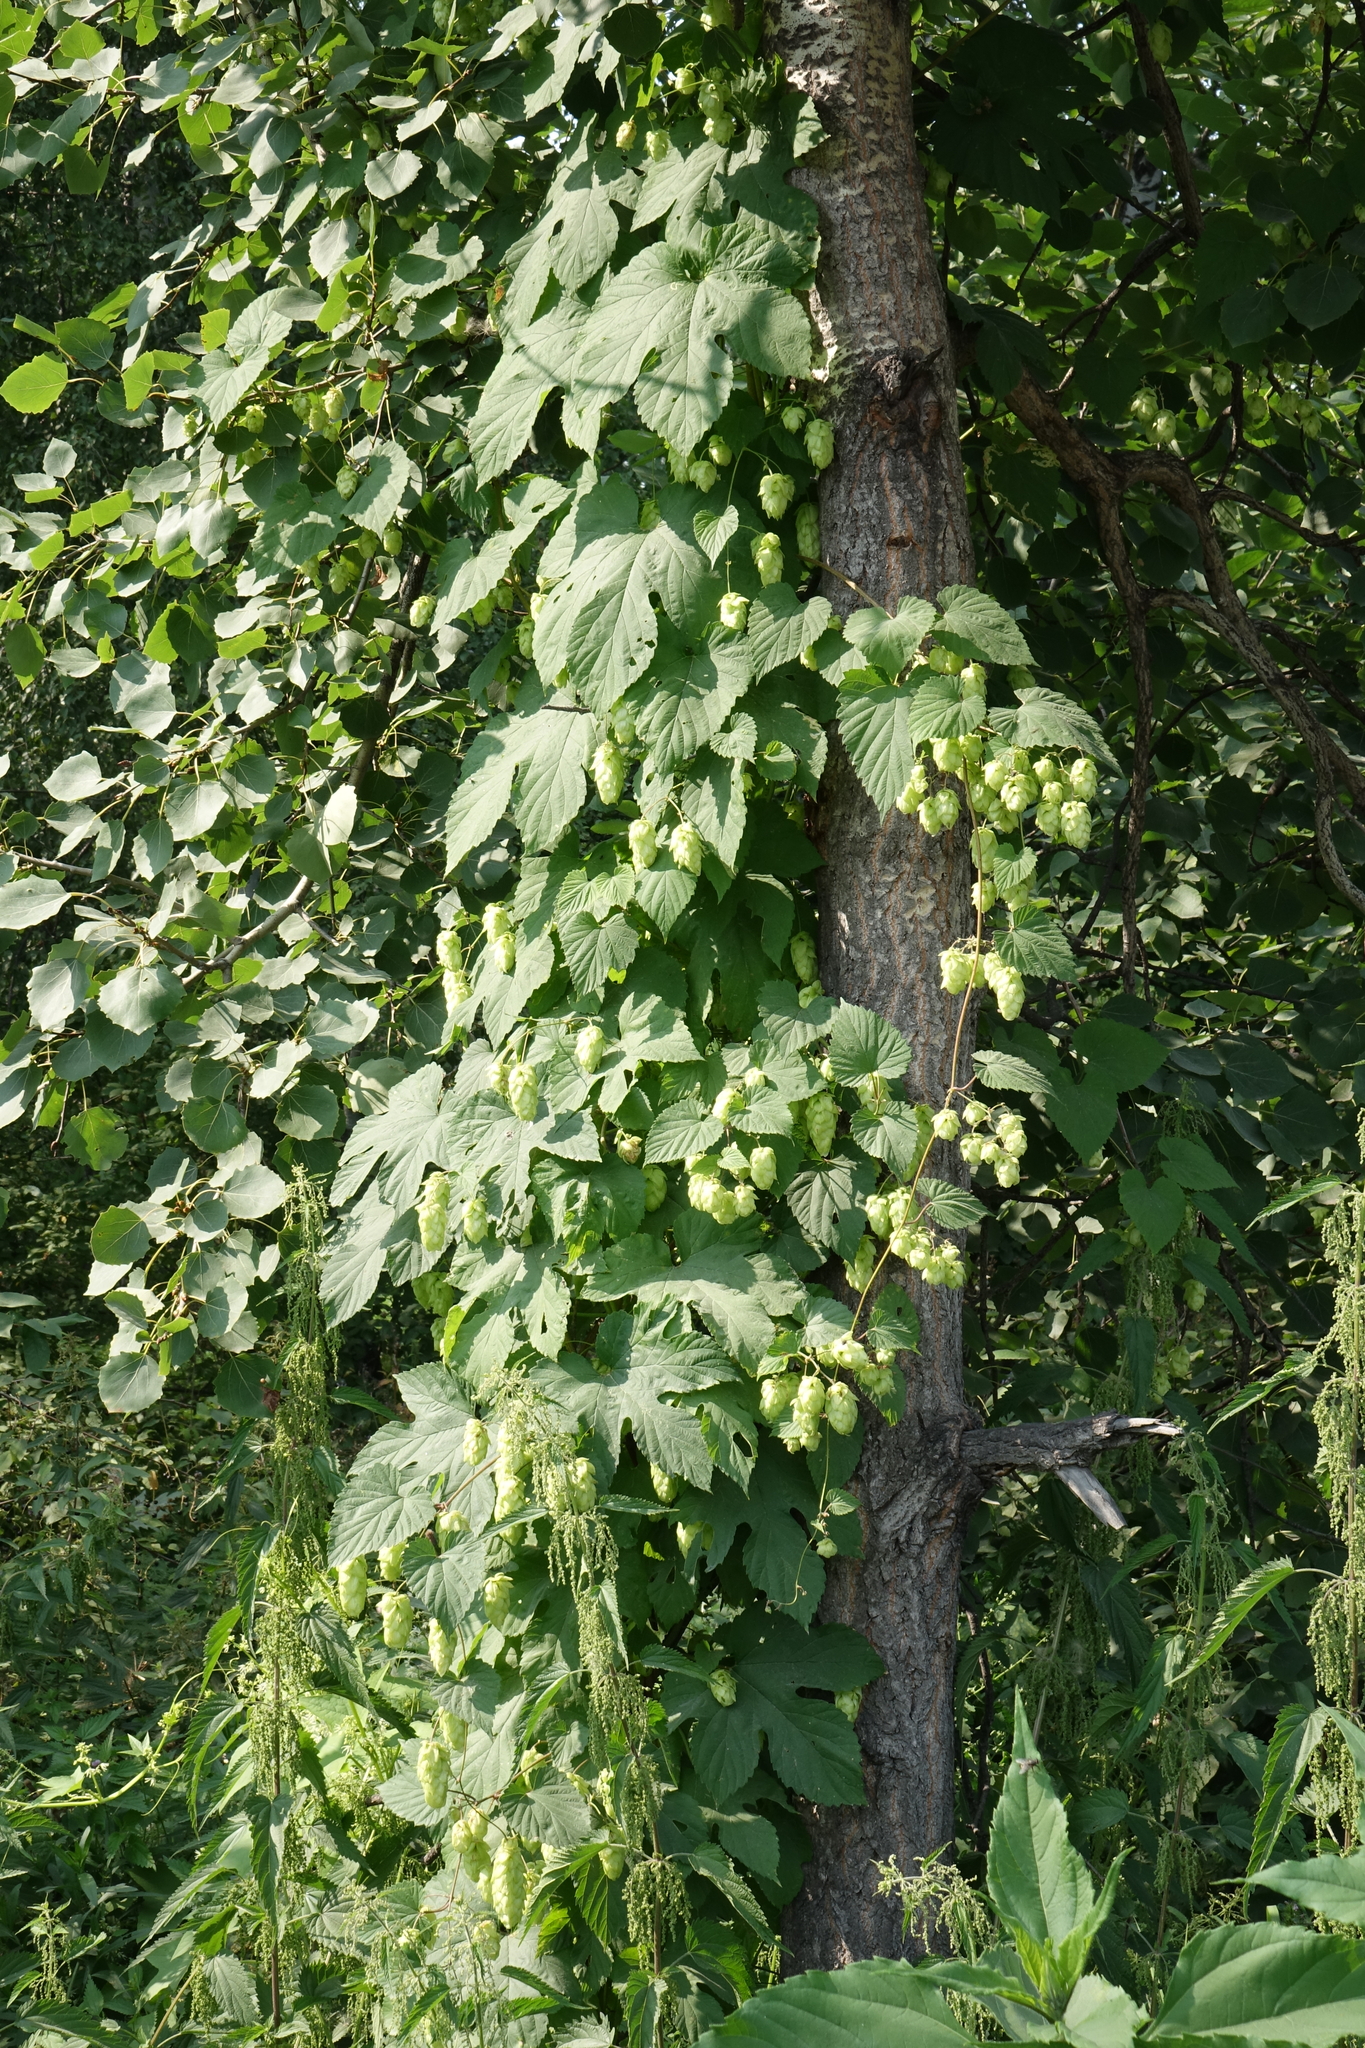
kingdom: Plantae
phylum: Tracheophyta
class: Magnoliopsida
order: Rosales
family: Cannabaceae
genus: Humulus
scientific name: Humulus lupulus
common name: Hop
